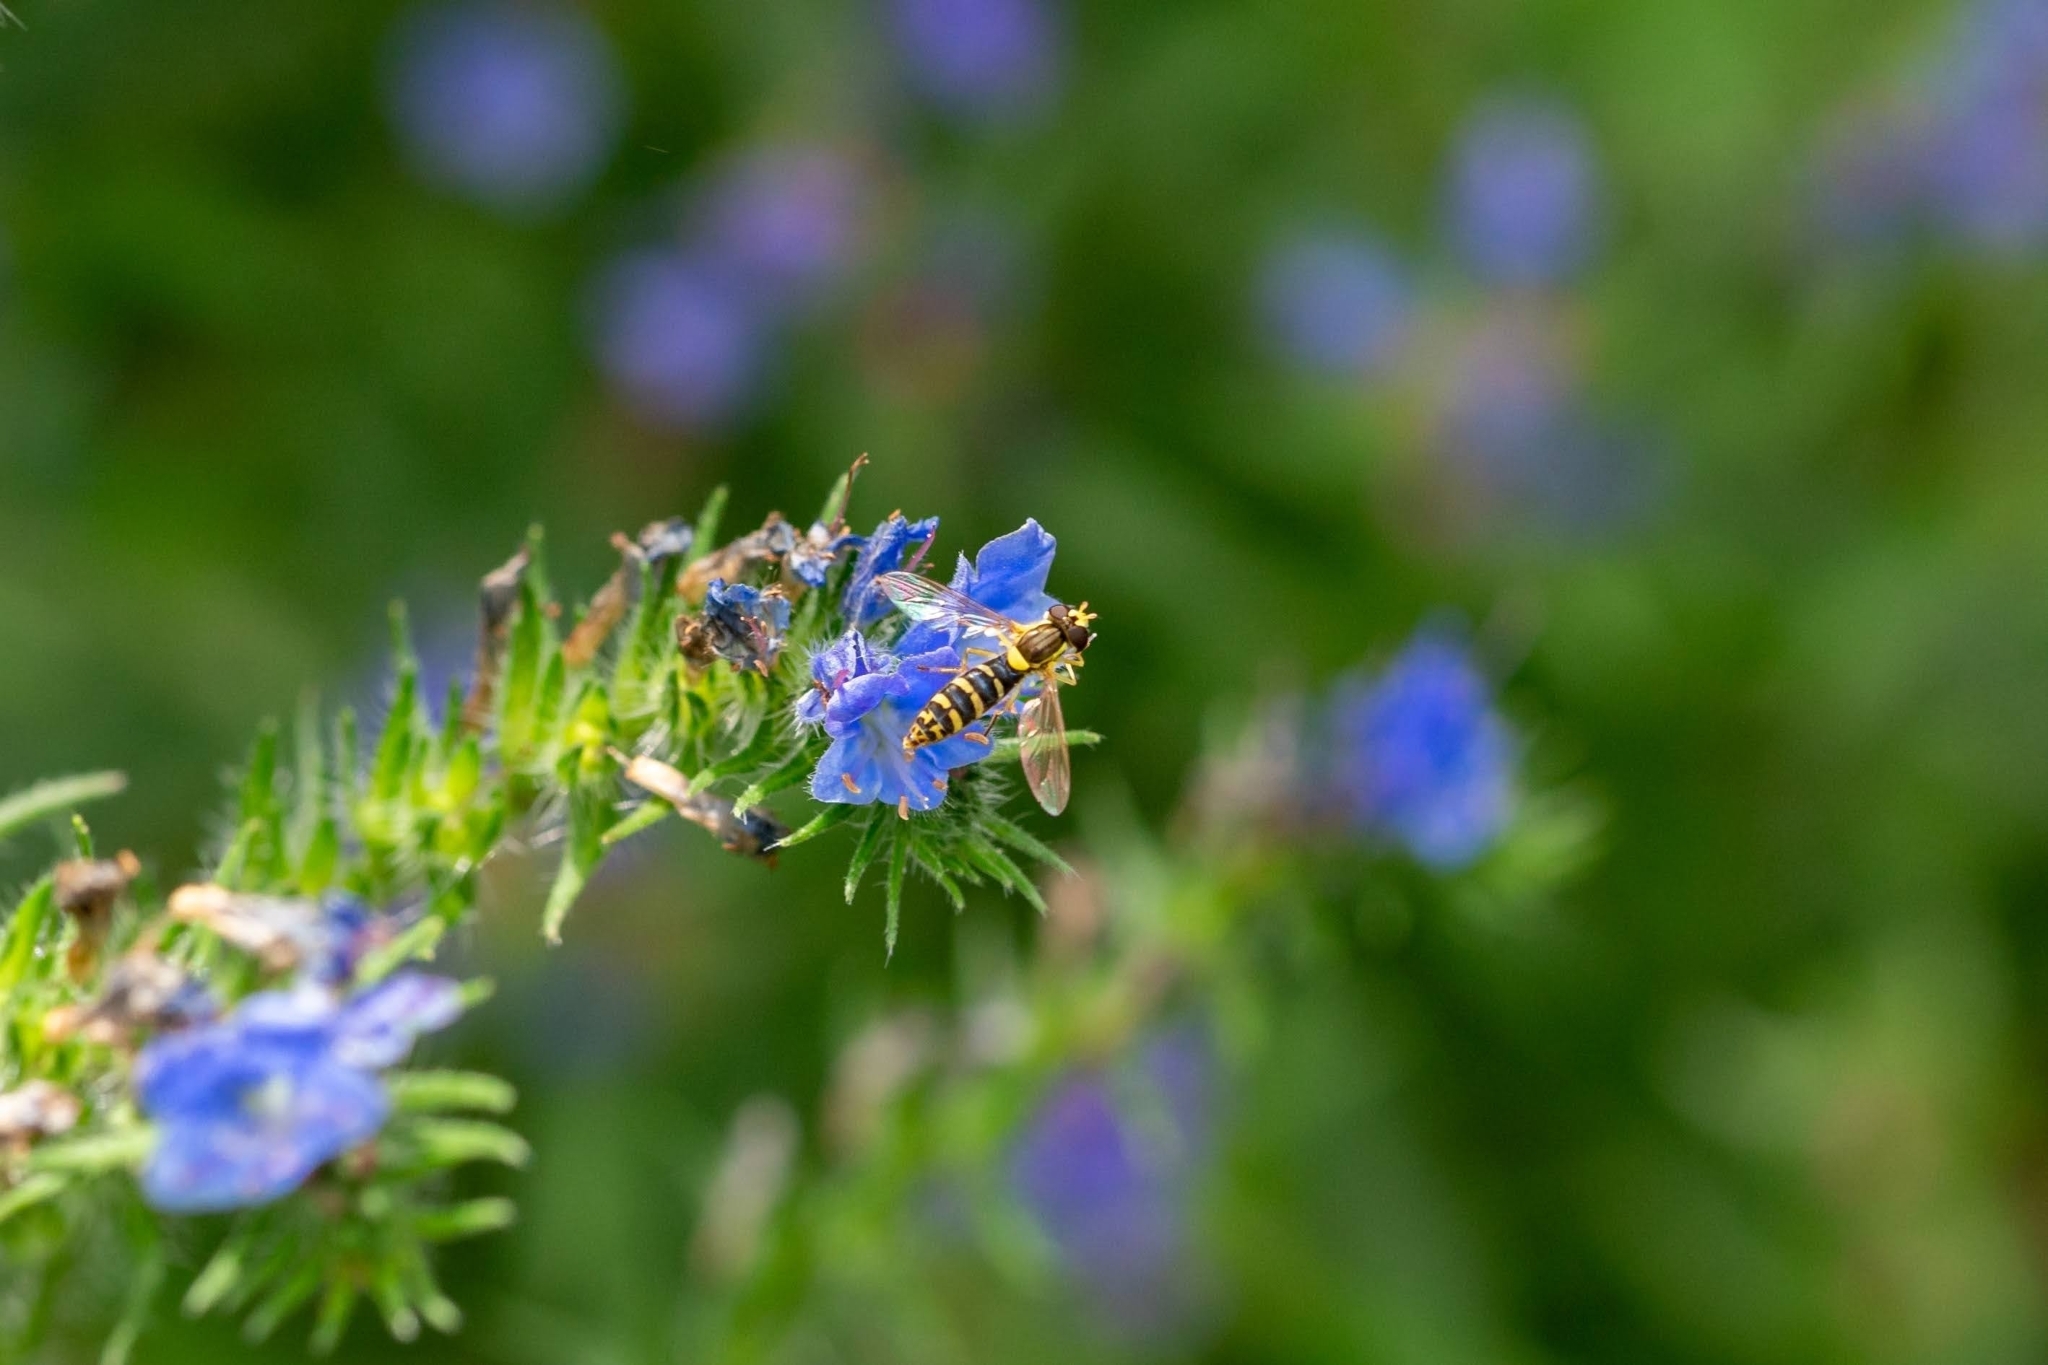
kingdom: Animalia
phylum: Arthropoda
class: Insecta
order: Diptera
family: Syrphidae
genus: Sphaerophoria
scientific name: Sphaerophoria
